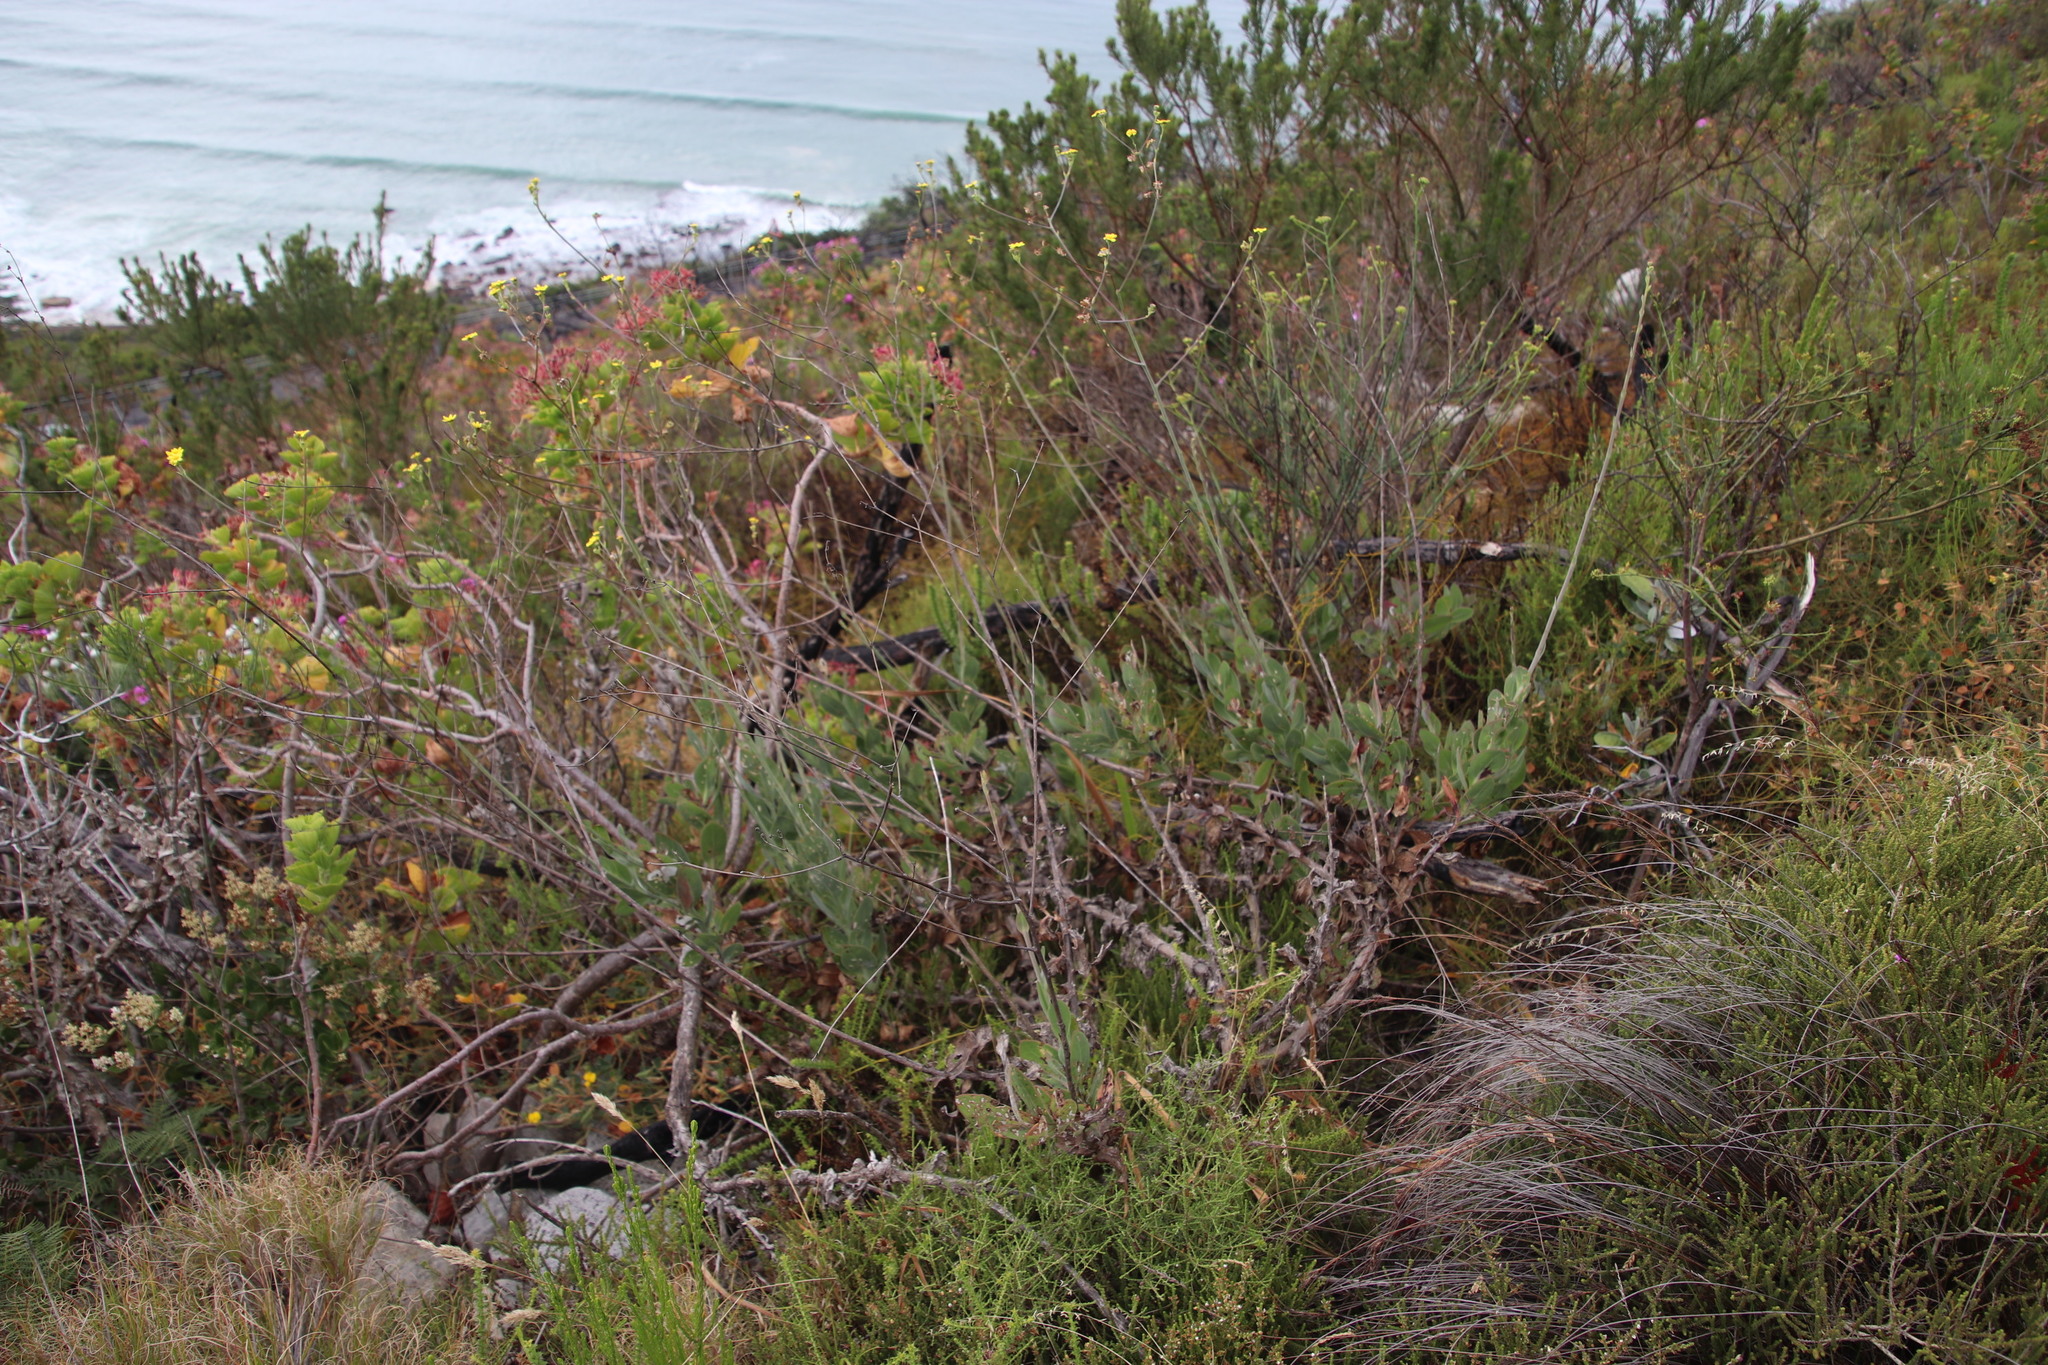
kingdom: Plantae
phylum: Tracheophyta
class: Magnoliopsida
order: Asterales
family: Asteraceae
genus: Othonna
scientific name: Othonna quinquedentata
